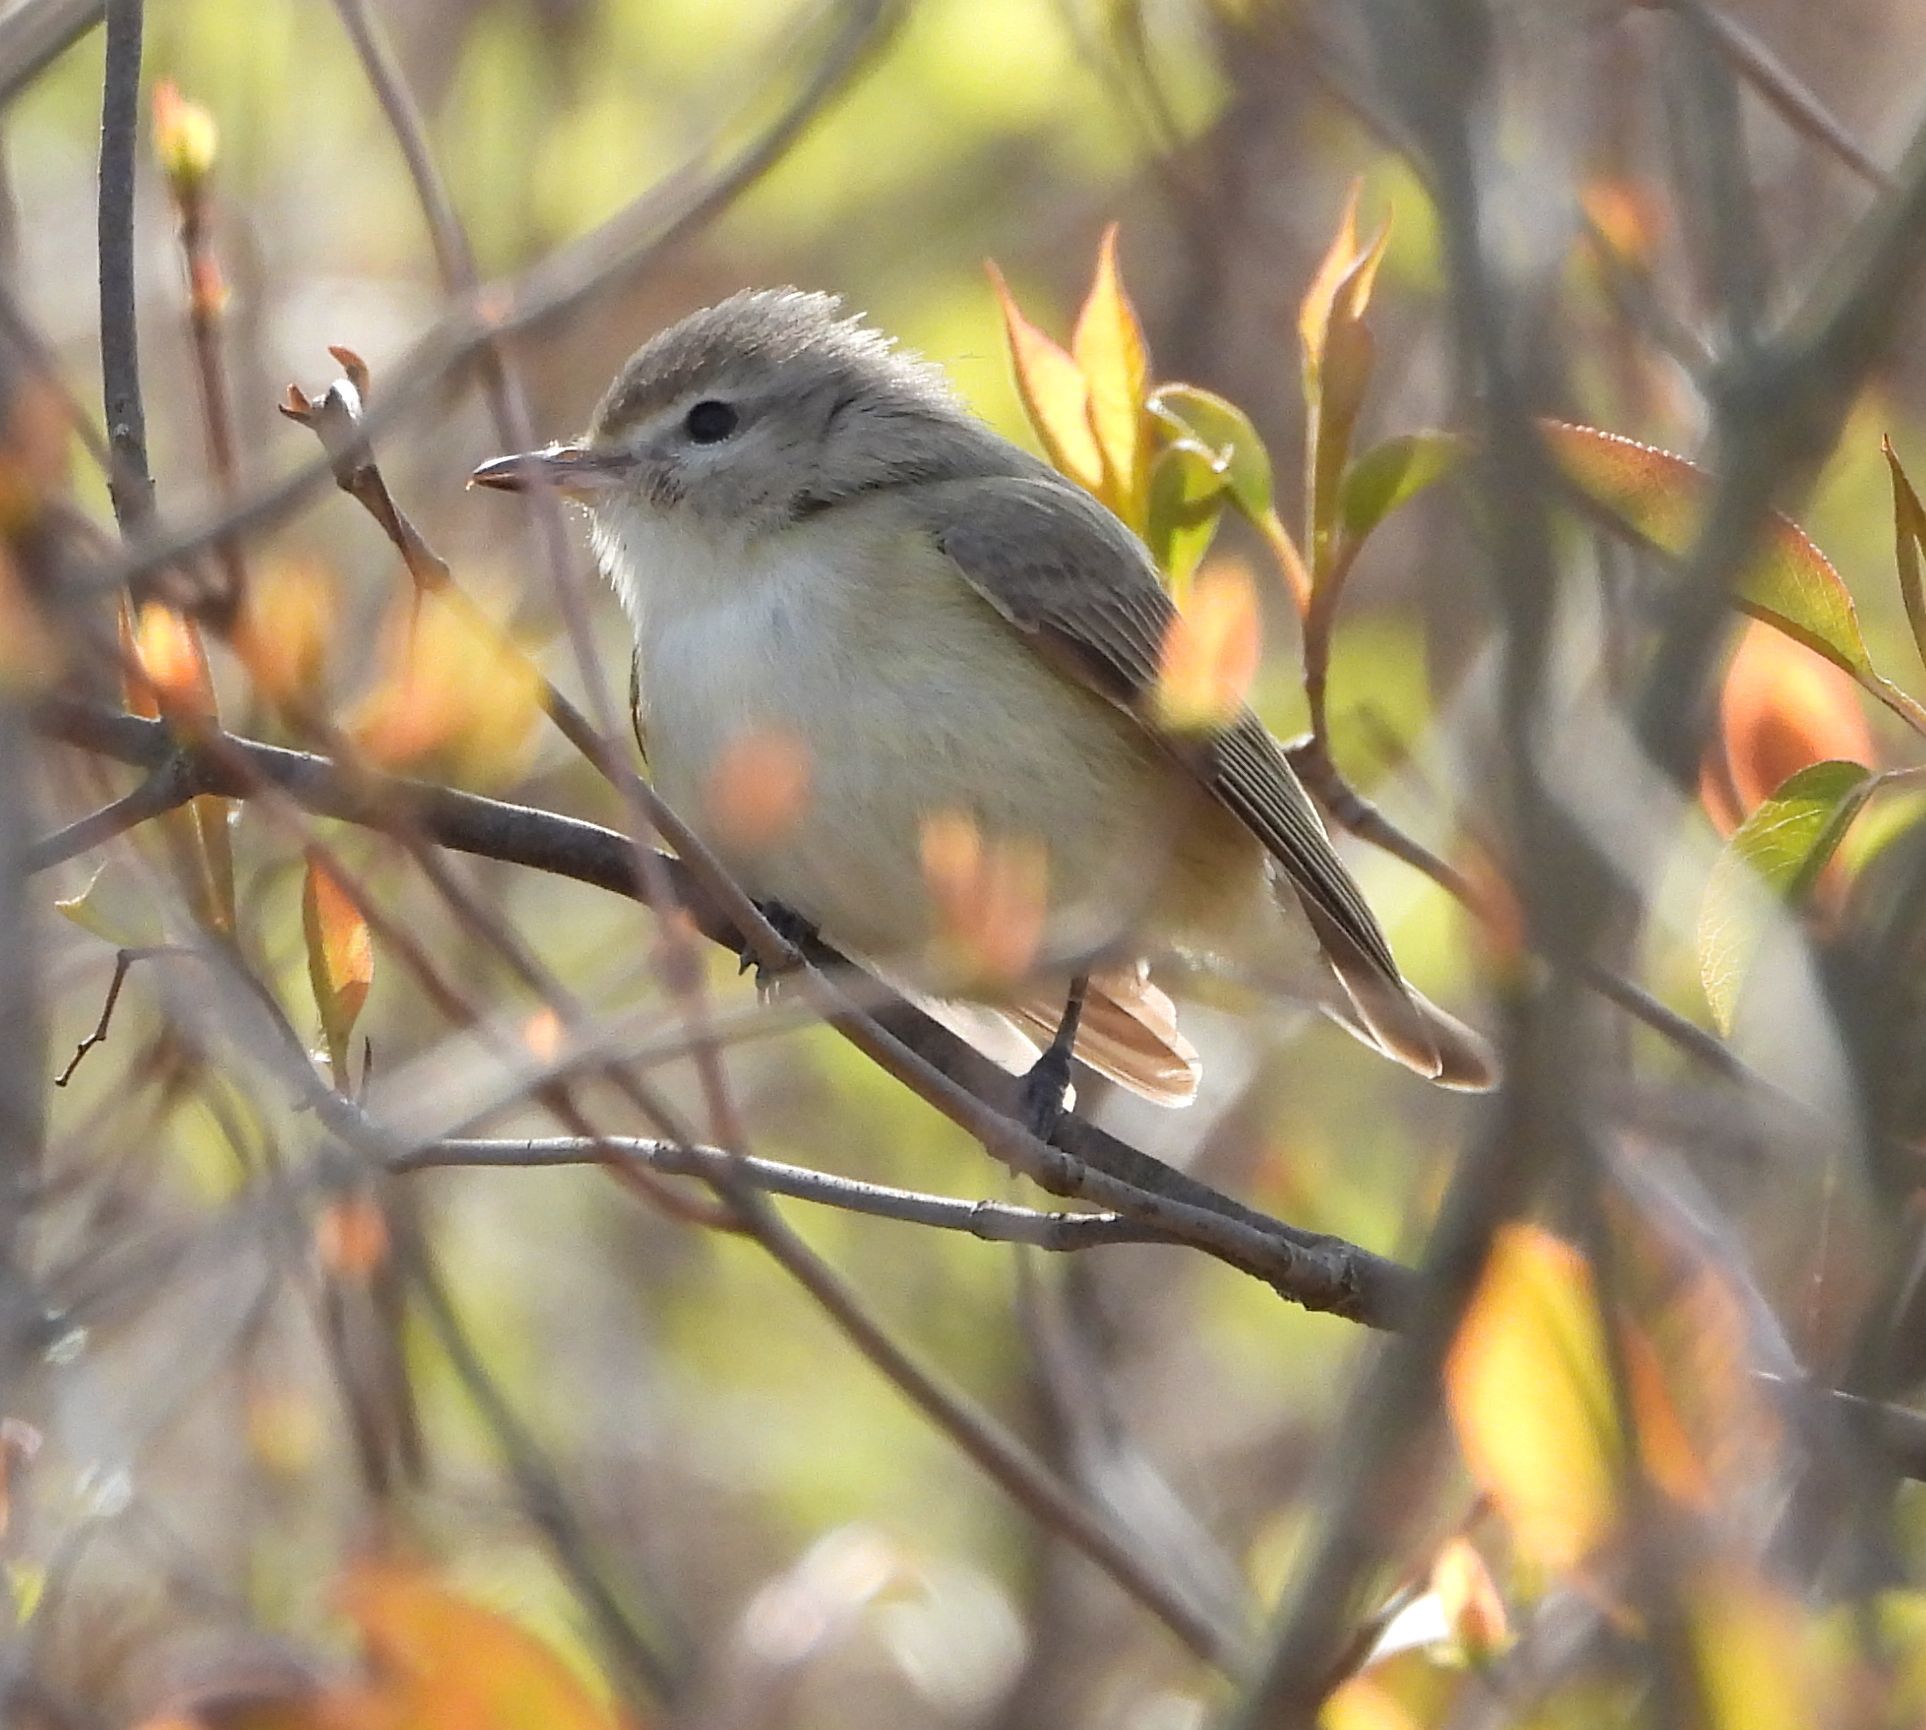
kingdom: Animalia
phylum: Chordata
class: Aves
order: Passeriformes
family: Vireonidae
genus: Vireo
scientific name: Vireo gilvus
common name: Warbling vireo
